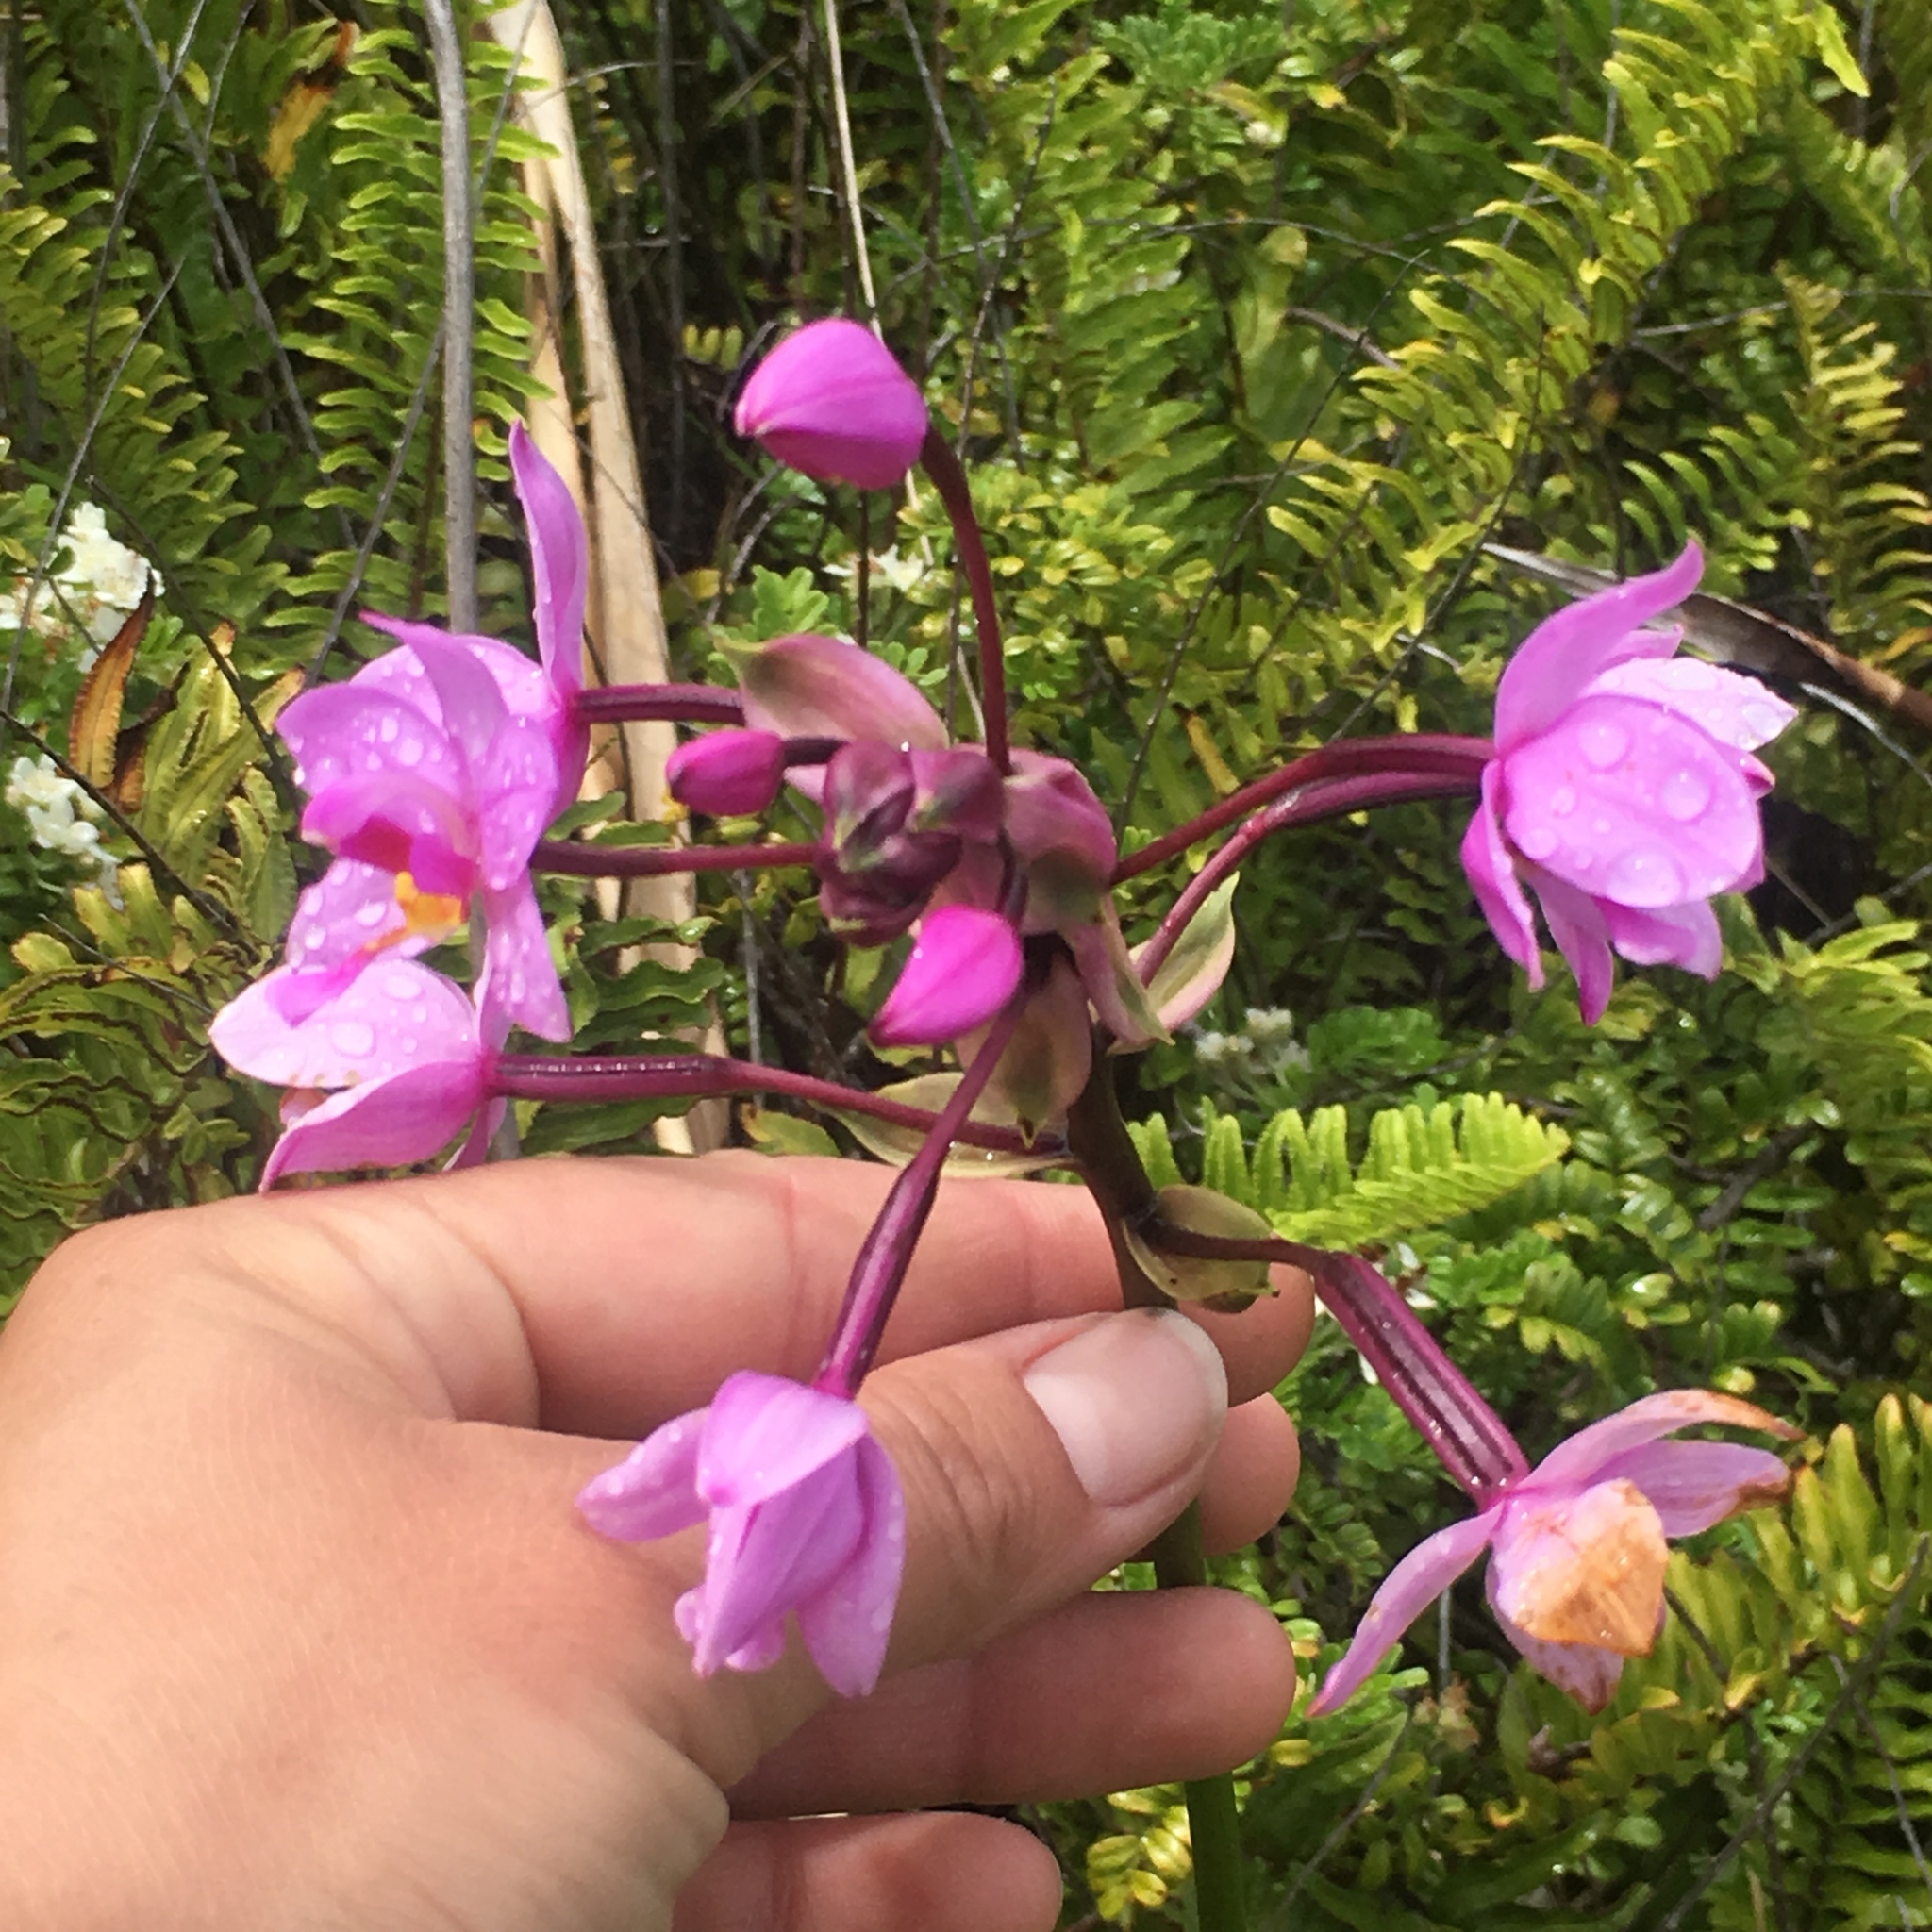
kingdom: Plantae
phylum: Tracheophyta
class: Liliopsida
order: Asparagales
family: Orchidaceae
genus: Spathoglottis
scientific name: Spathoglottis plicata
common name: Philippine ground orchid
